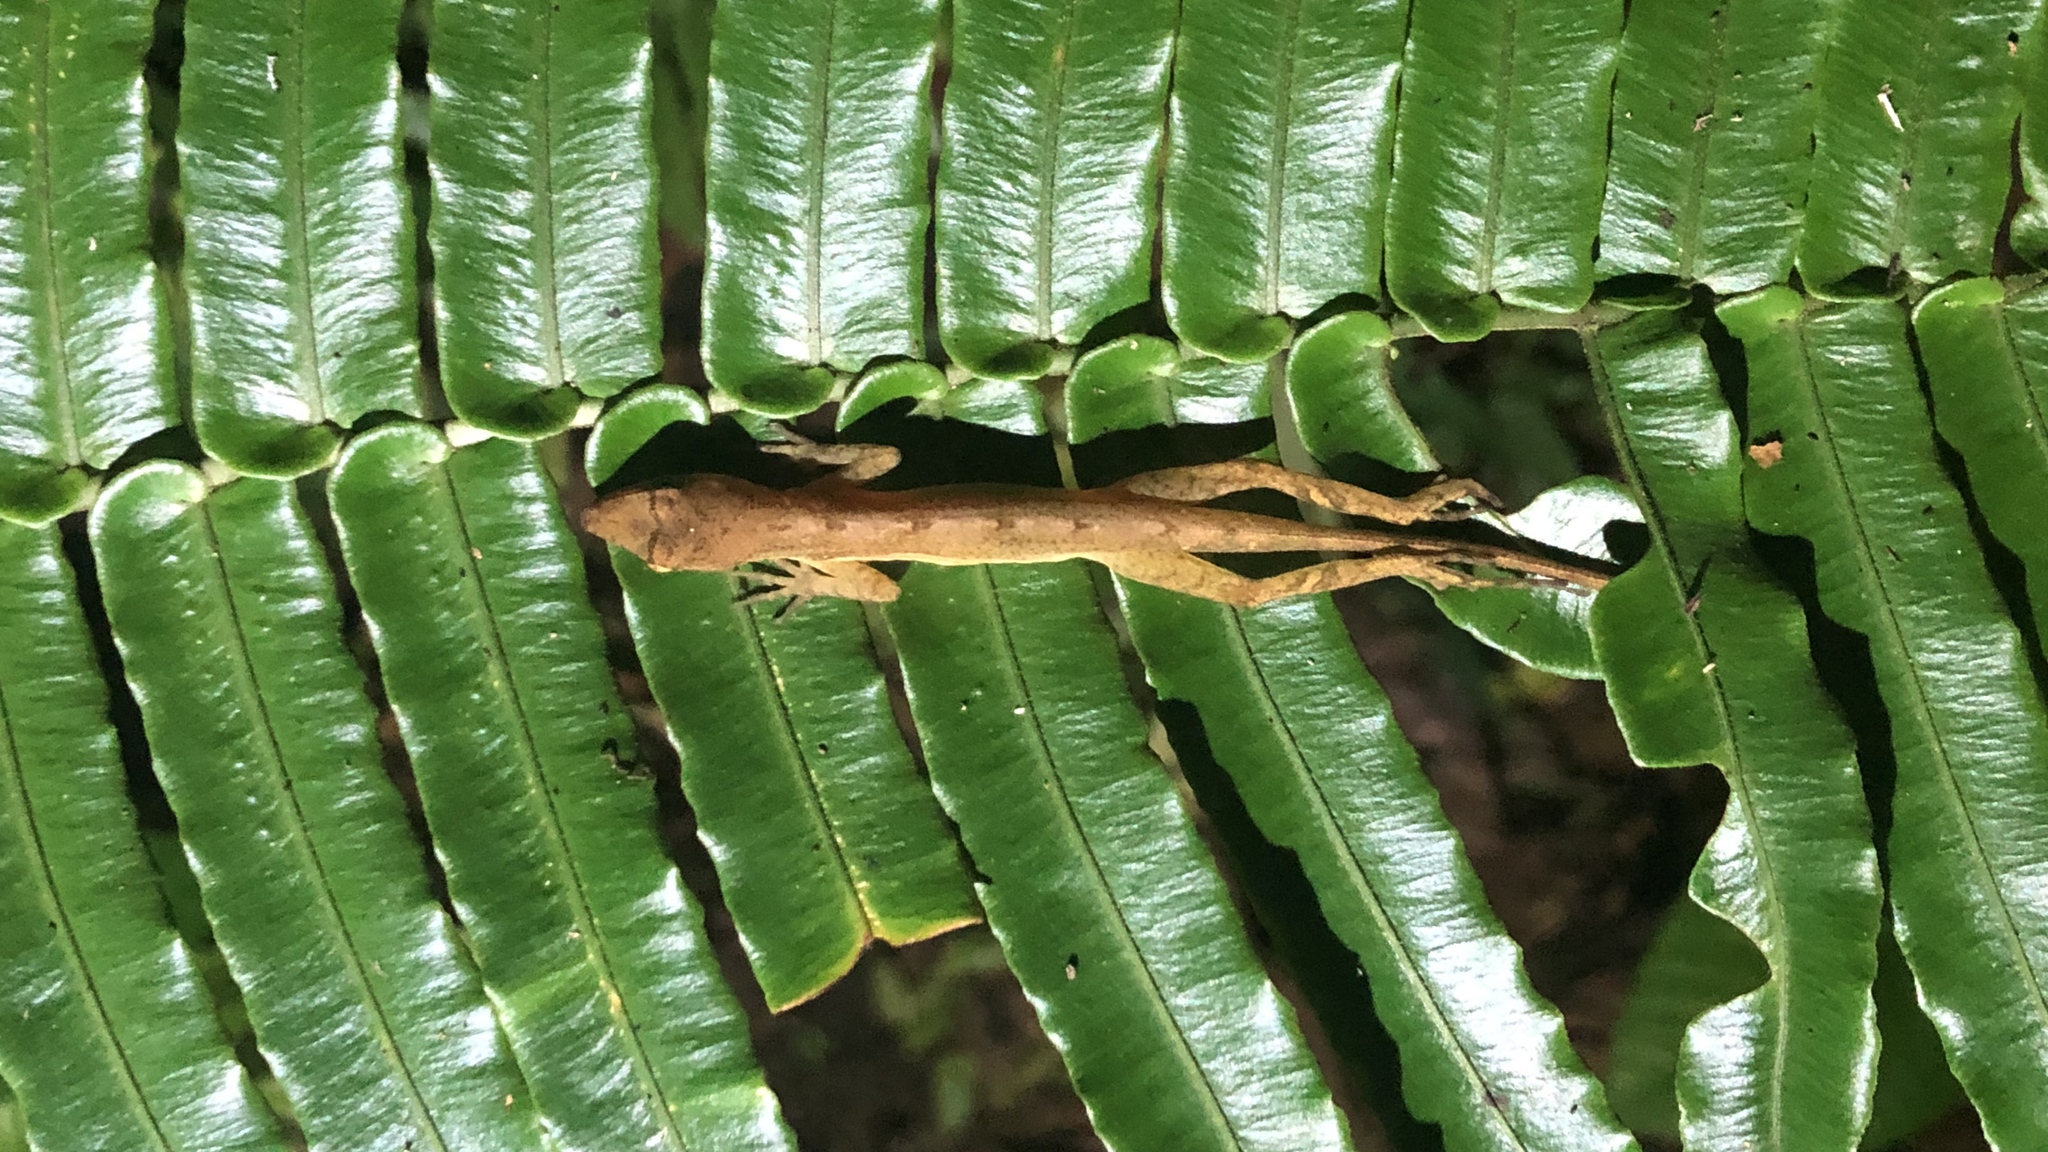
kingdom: Animalia
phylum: Chordata
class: Squamata
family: Dactyloidae
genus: Anolis
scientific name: Anolis limifrons
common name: Border anole
